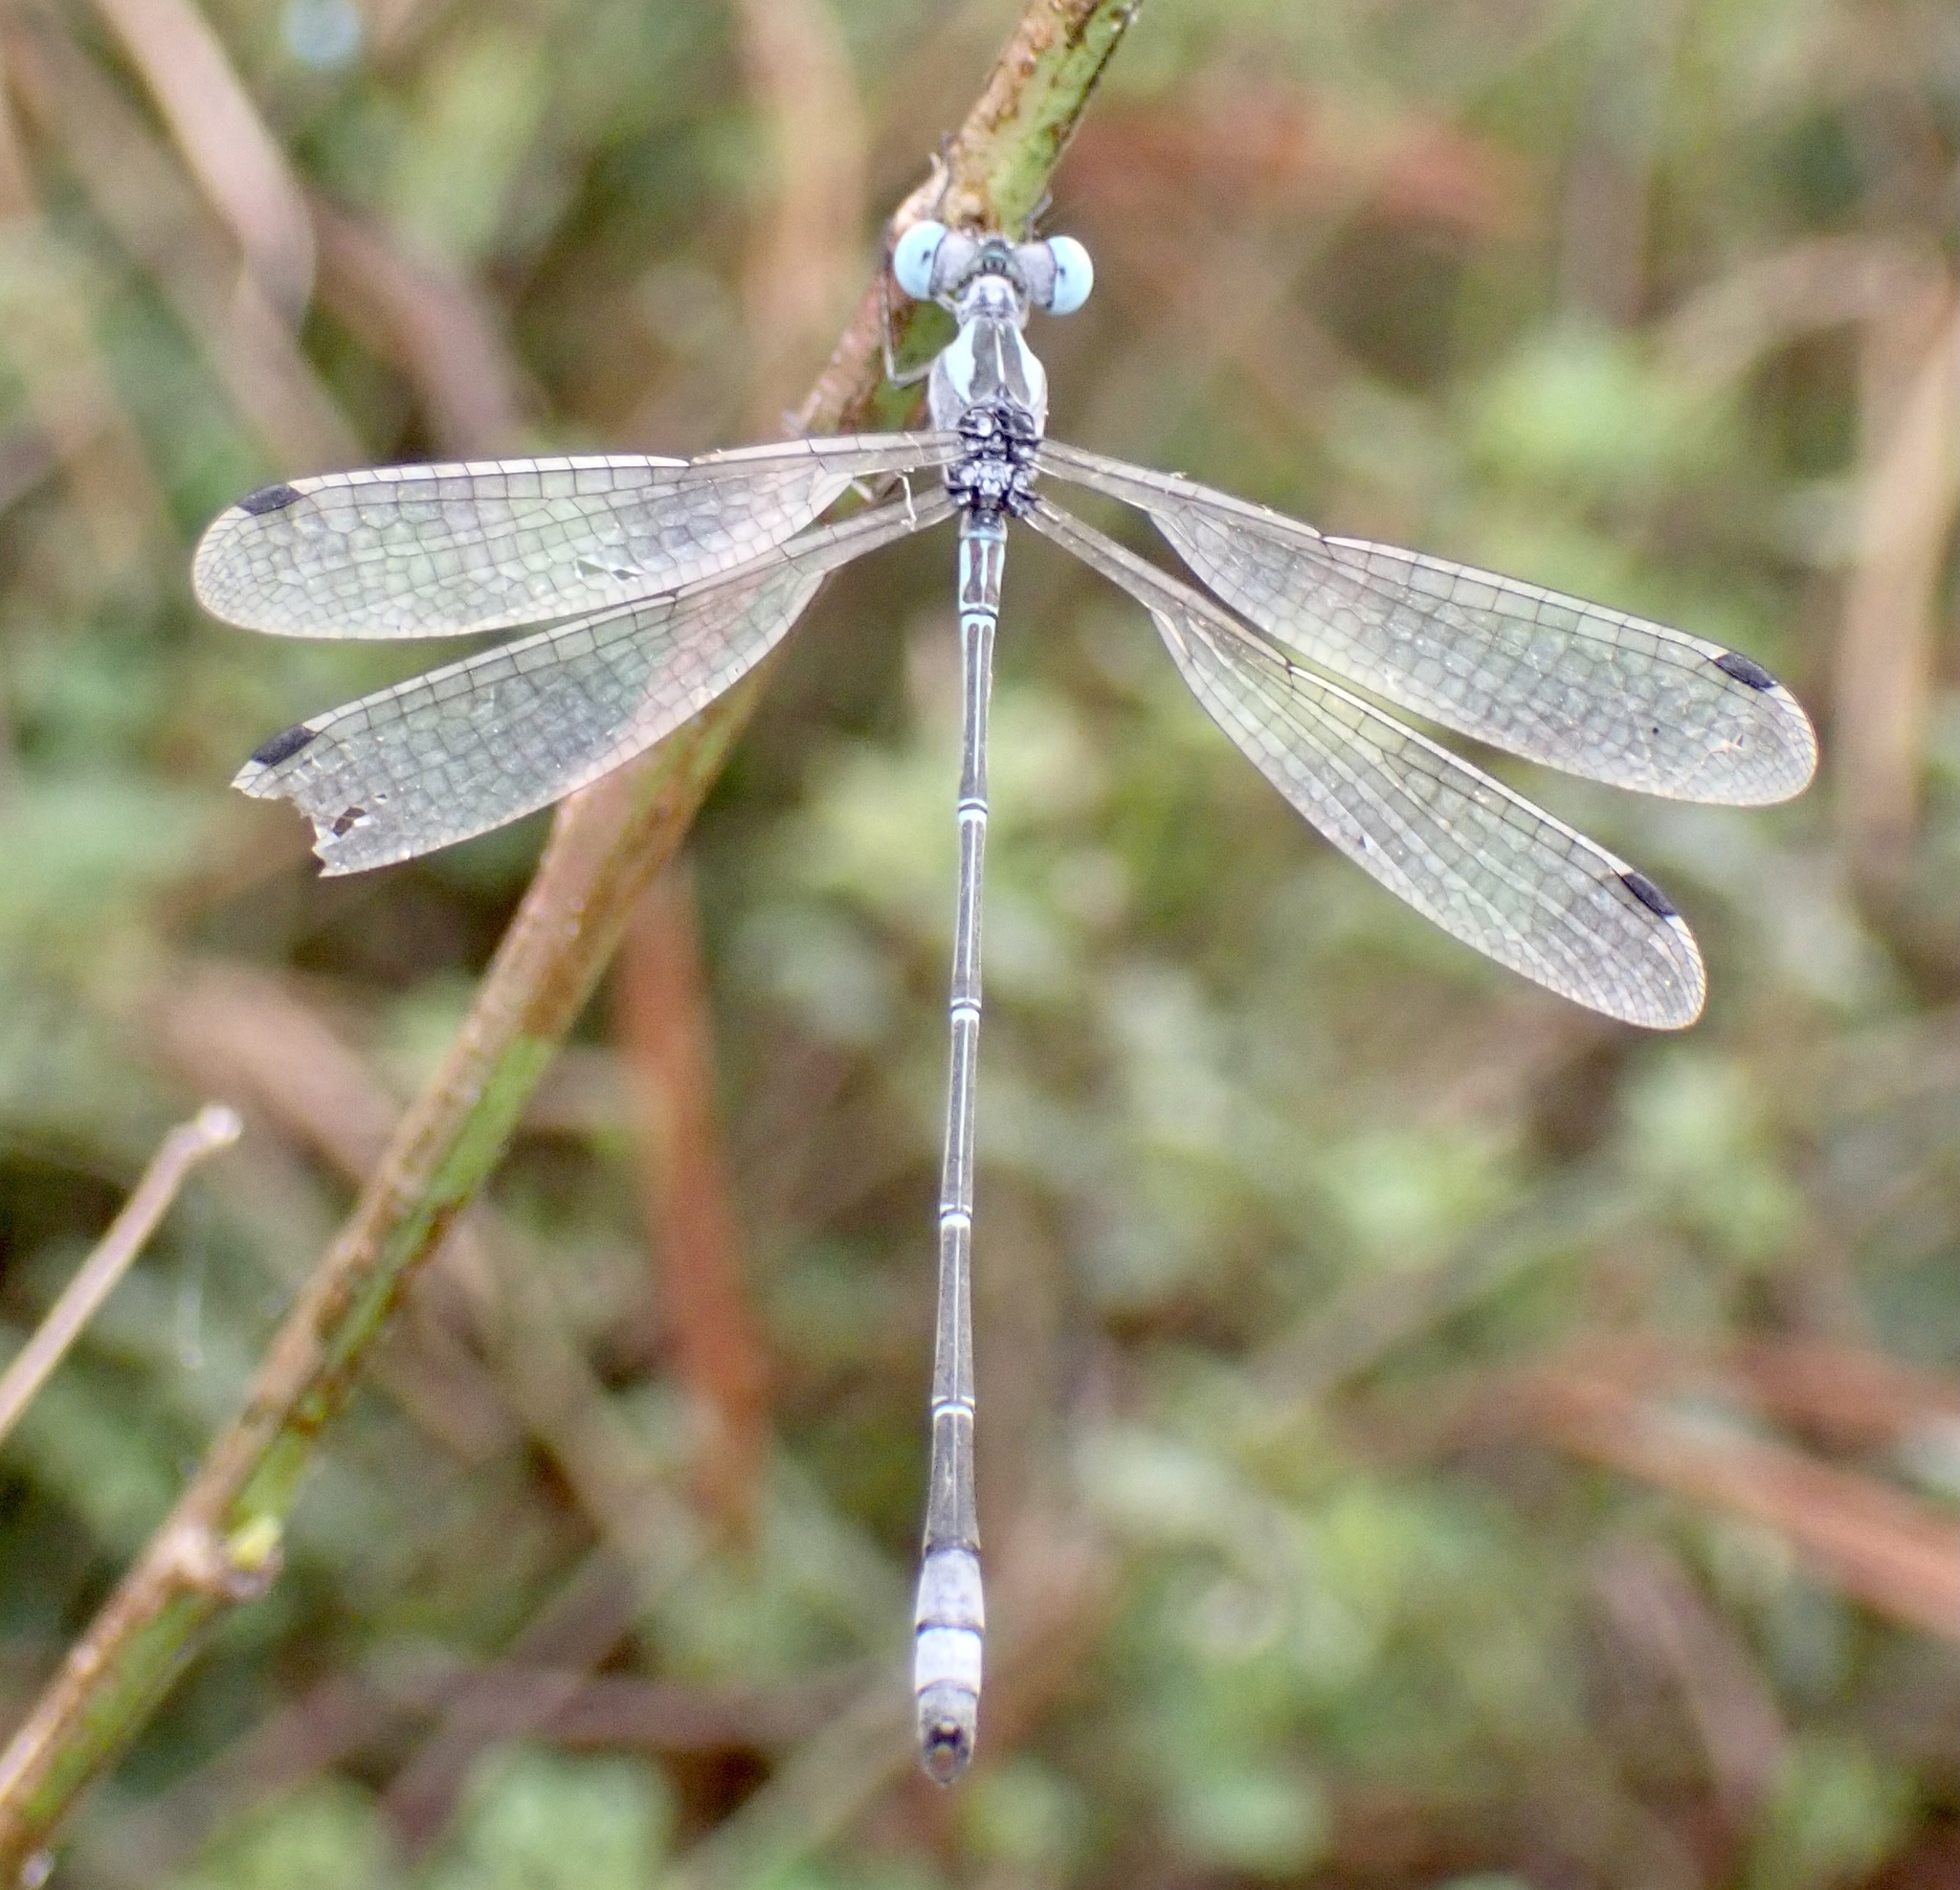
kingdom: Animalia
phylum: Arthropoda
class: Insecta
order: Odonata
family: Lestidae
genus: Lestes
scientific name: Lestes forficula
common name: Rainpool spreadwing
